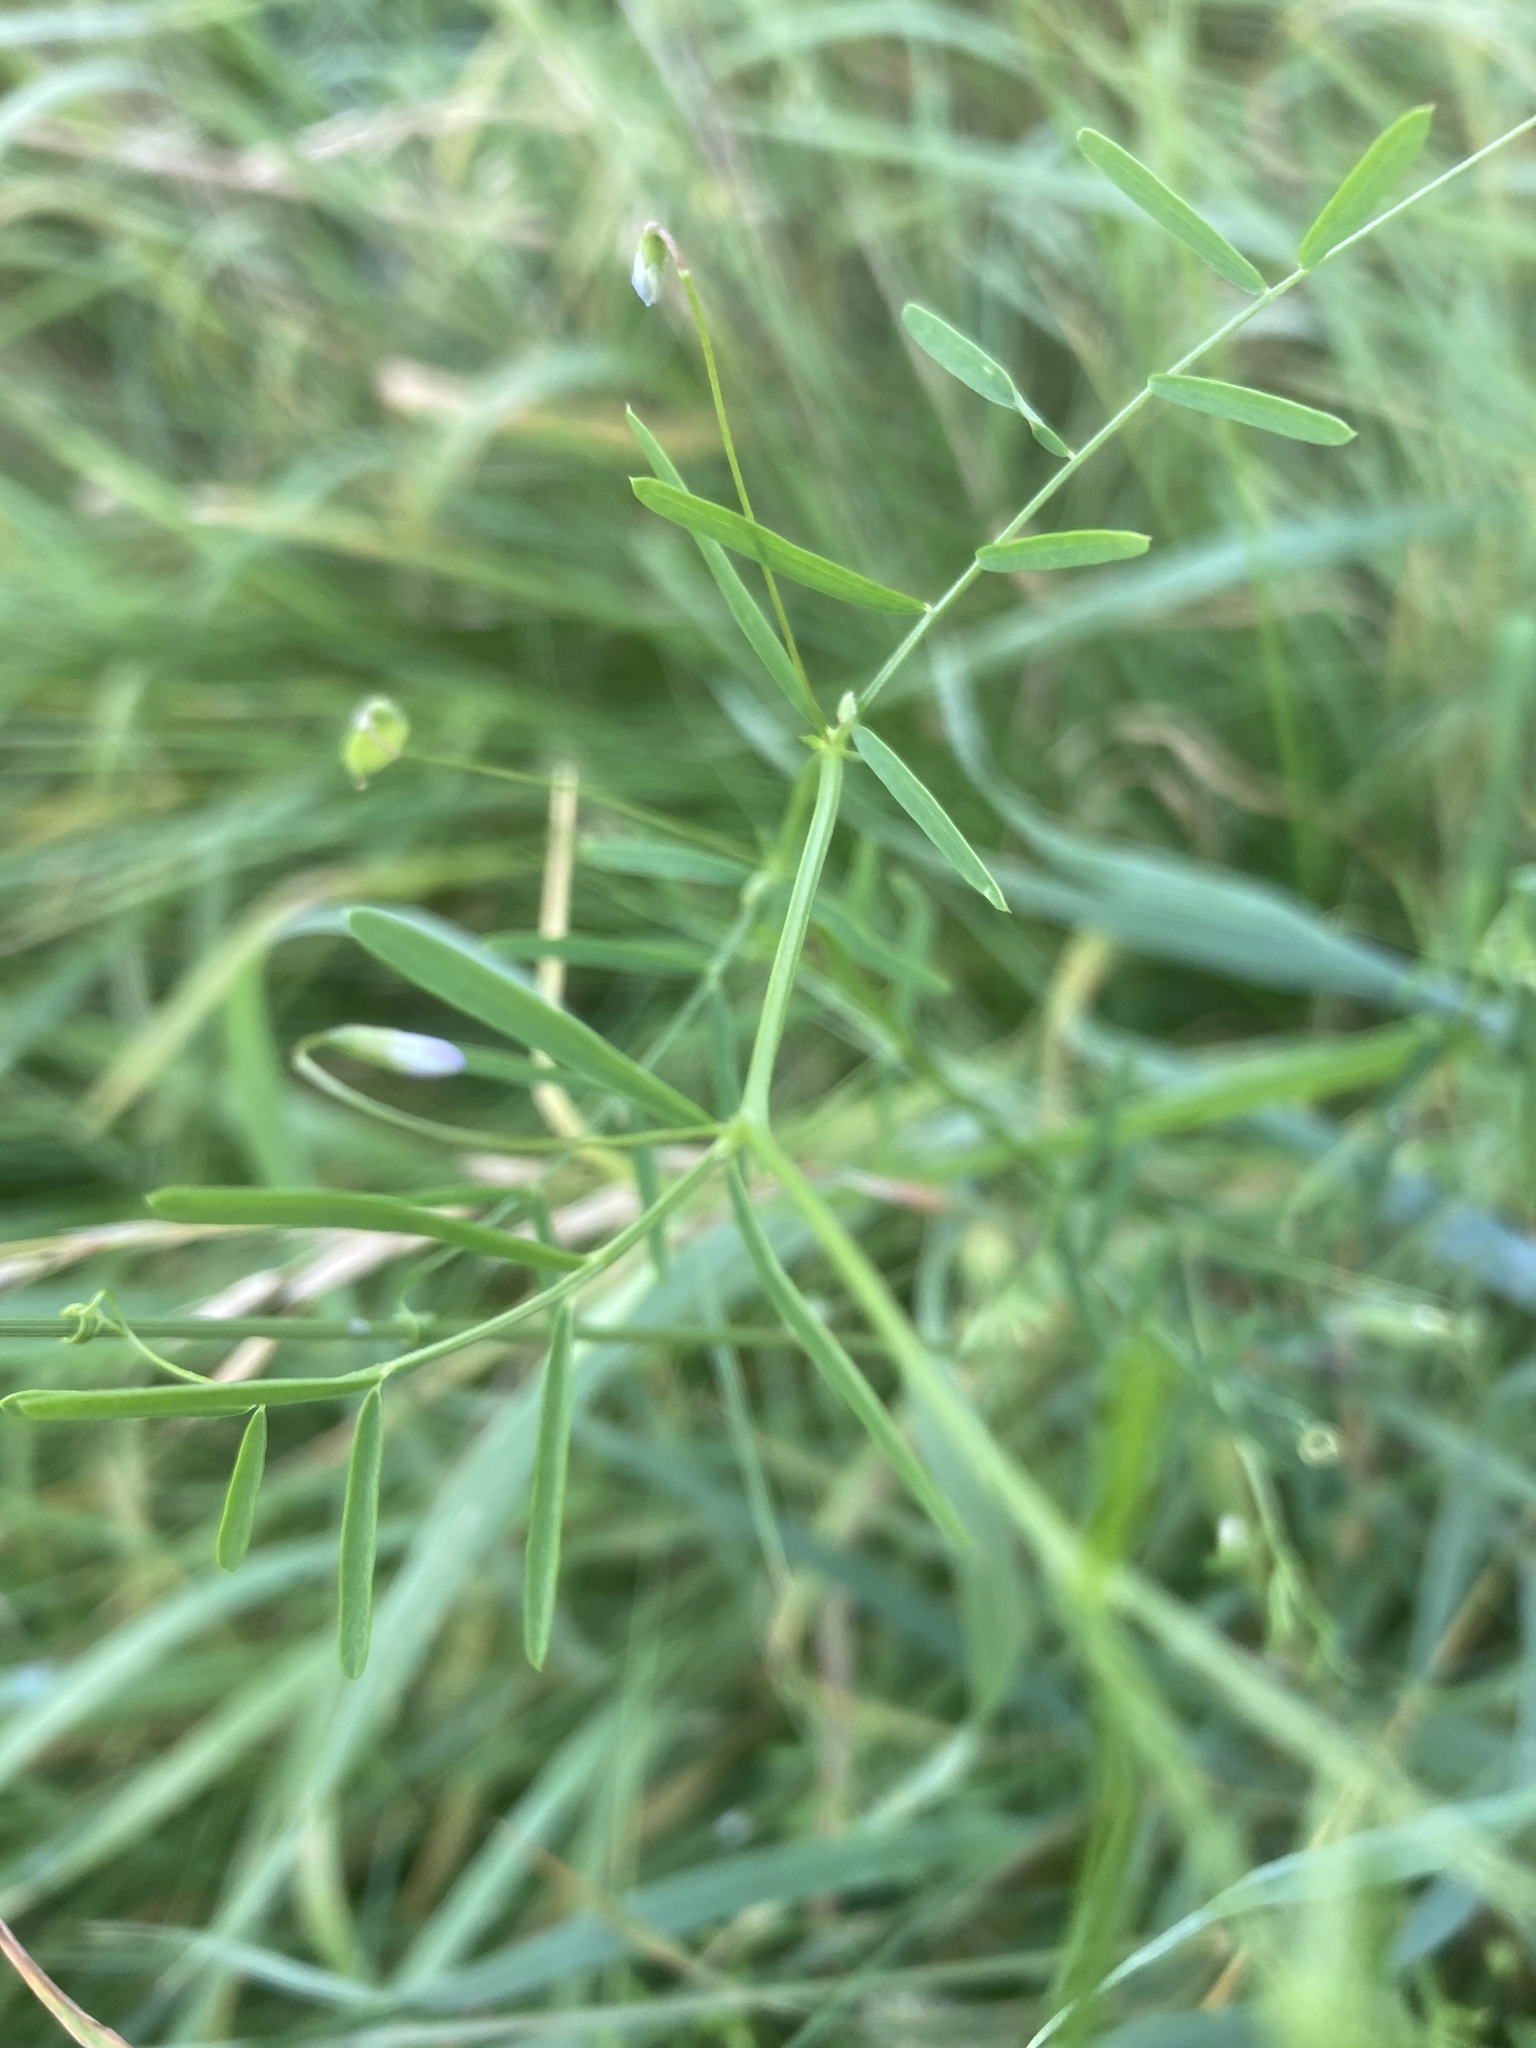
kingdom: Plantae
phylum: Tracheophyta
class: Magnoliopsida
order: Fabales
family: Fabaceae
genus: Vicia
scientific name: Vicia tetrasperma
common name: Smooth tare
